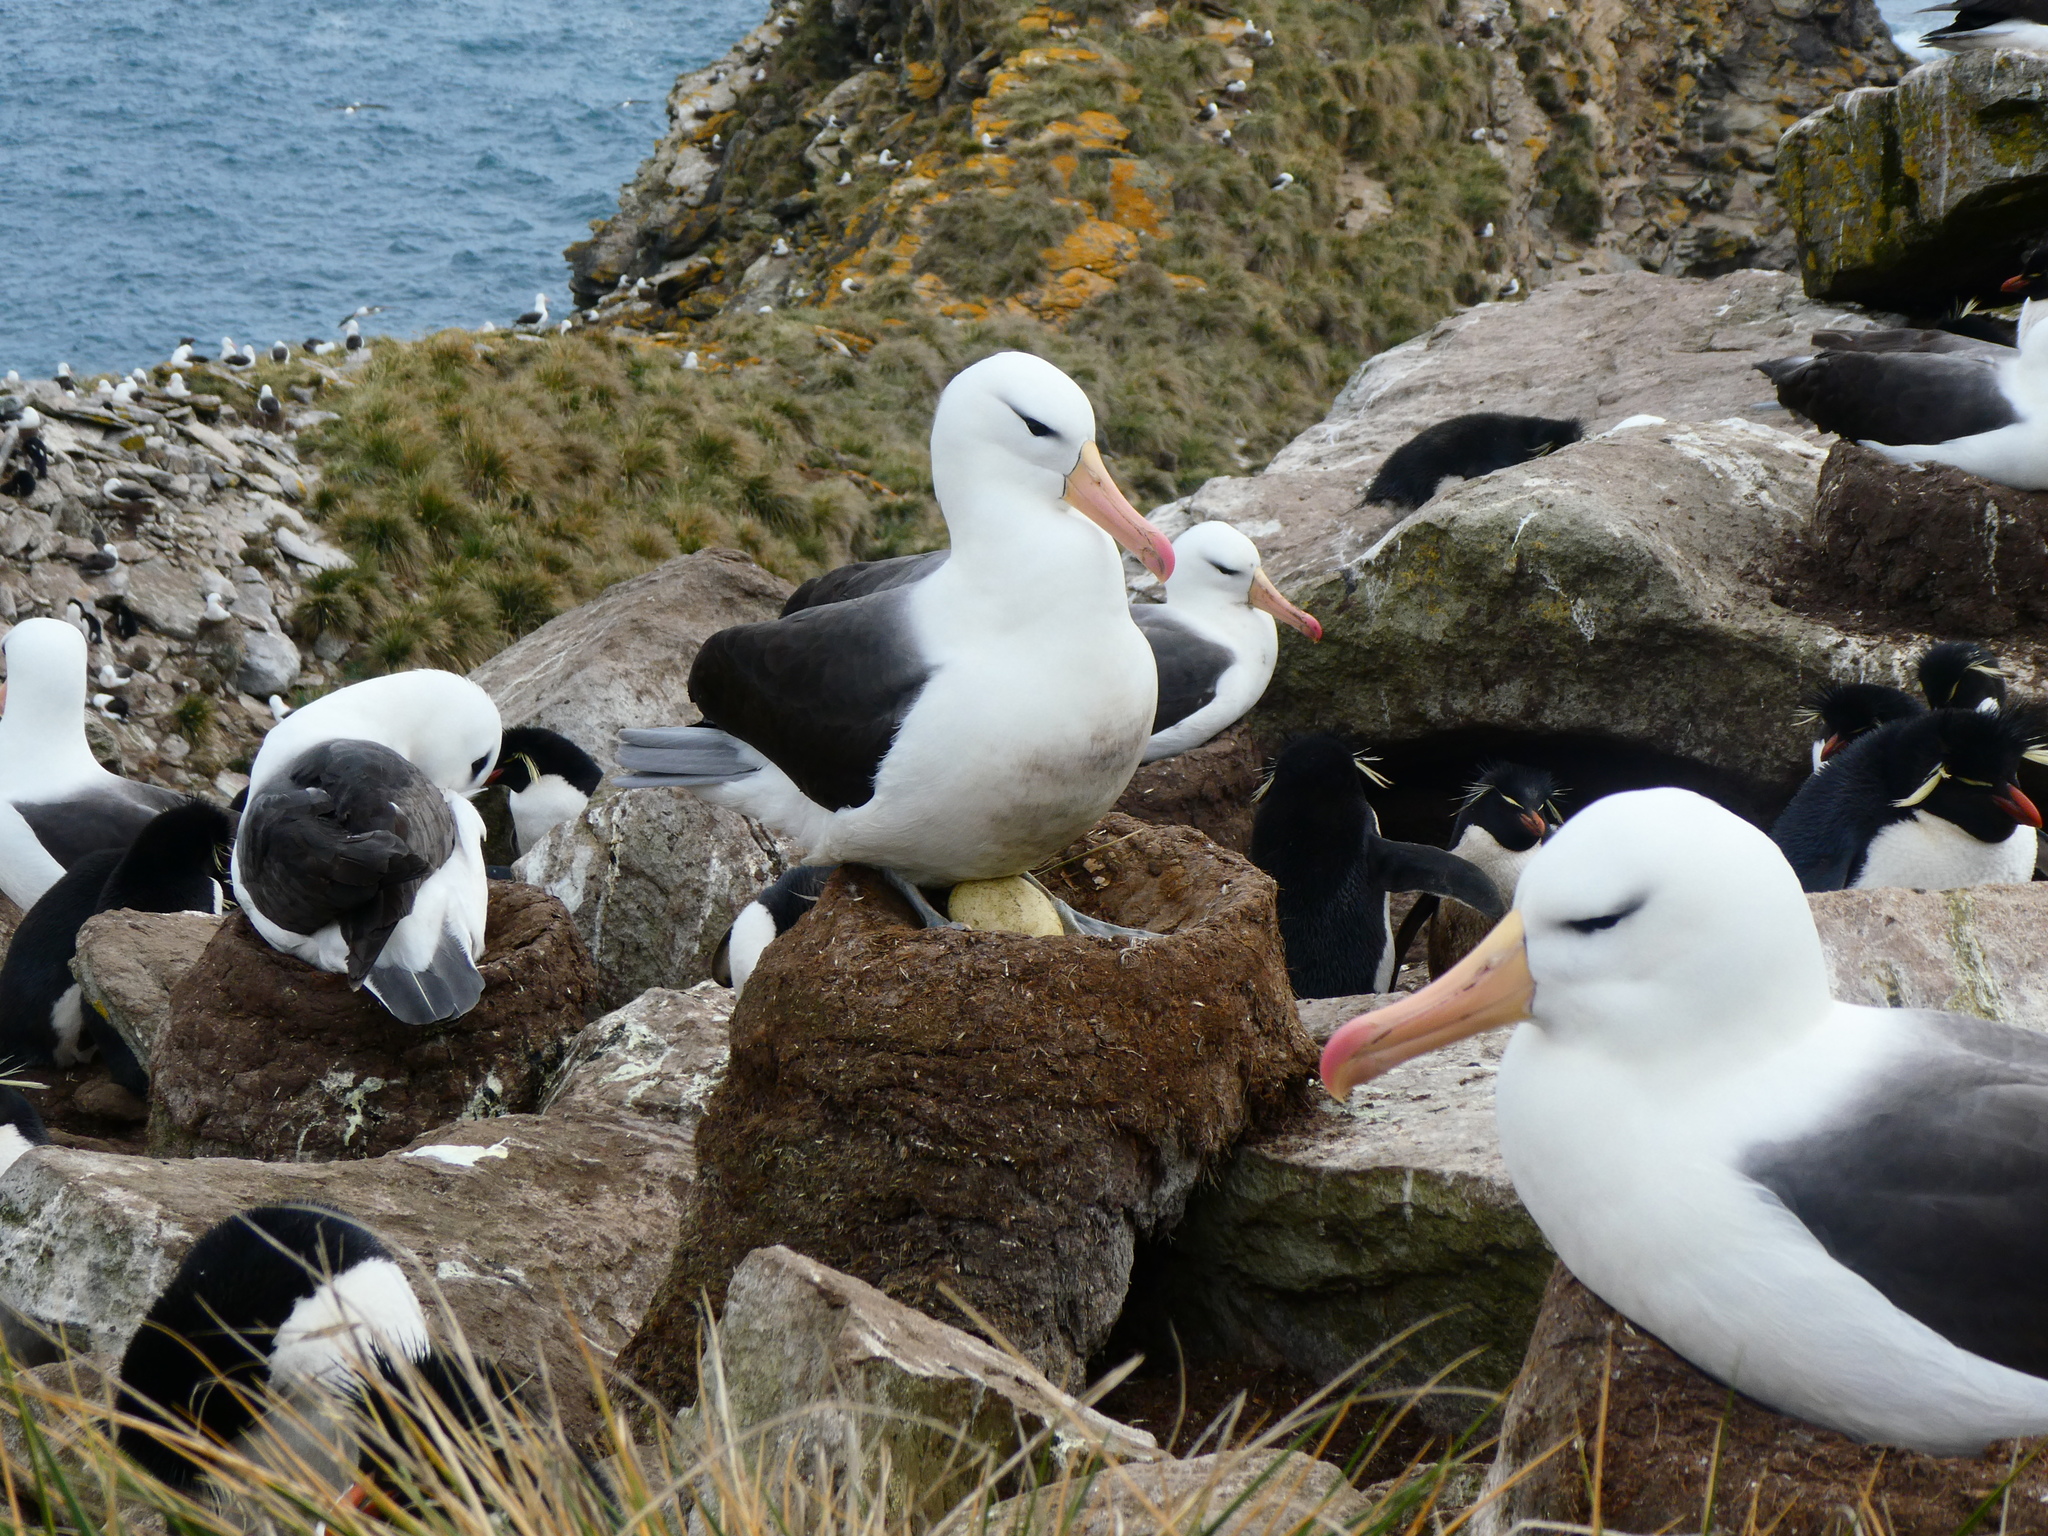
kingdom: Animalia
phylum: Chordata
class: Aves
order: Procellariiformes
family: Diomedeidae
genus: Thalassarche
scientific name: Thalassarche melanophris
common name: Black-browed albatross
